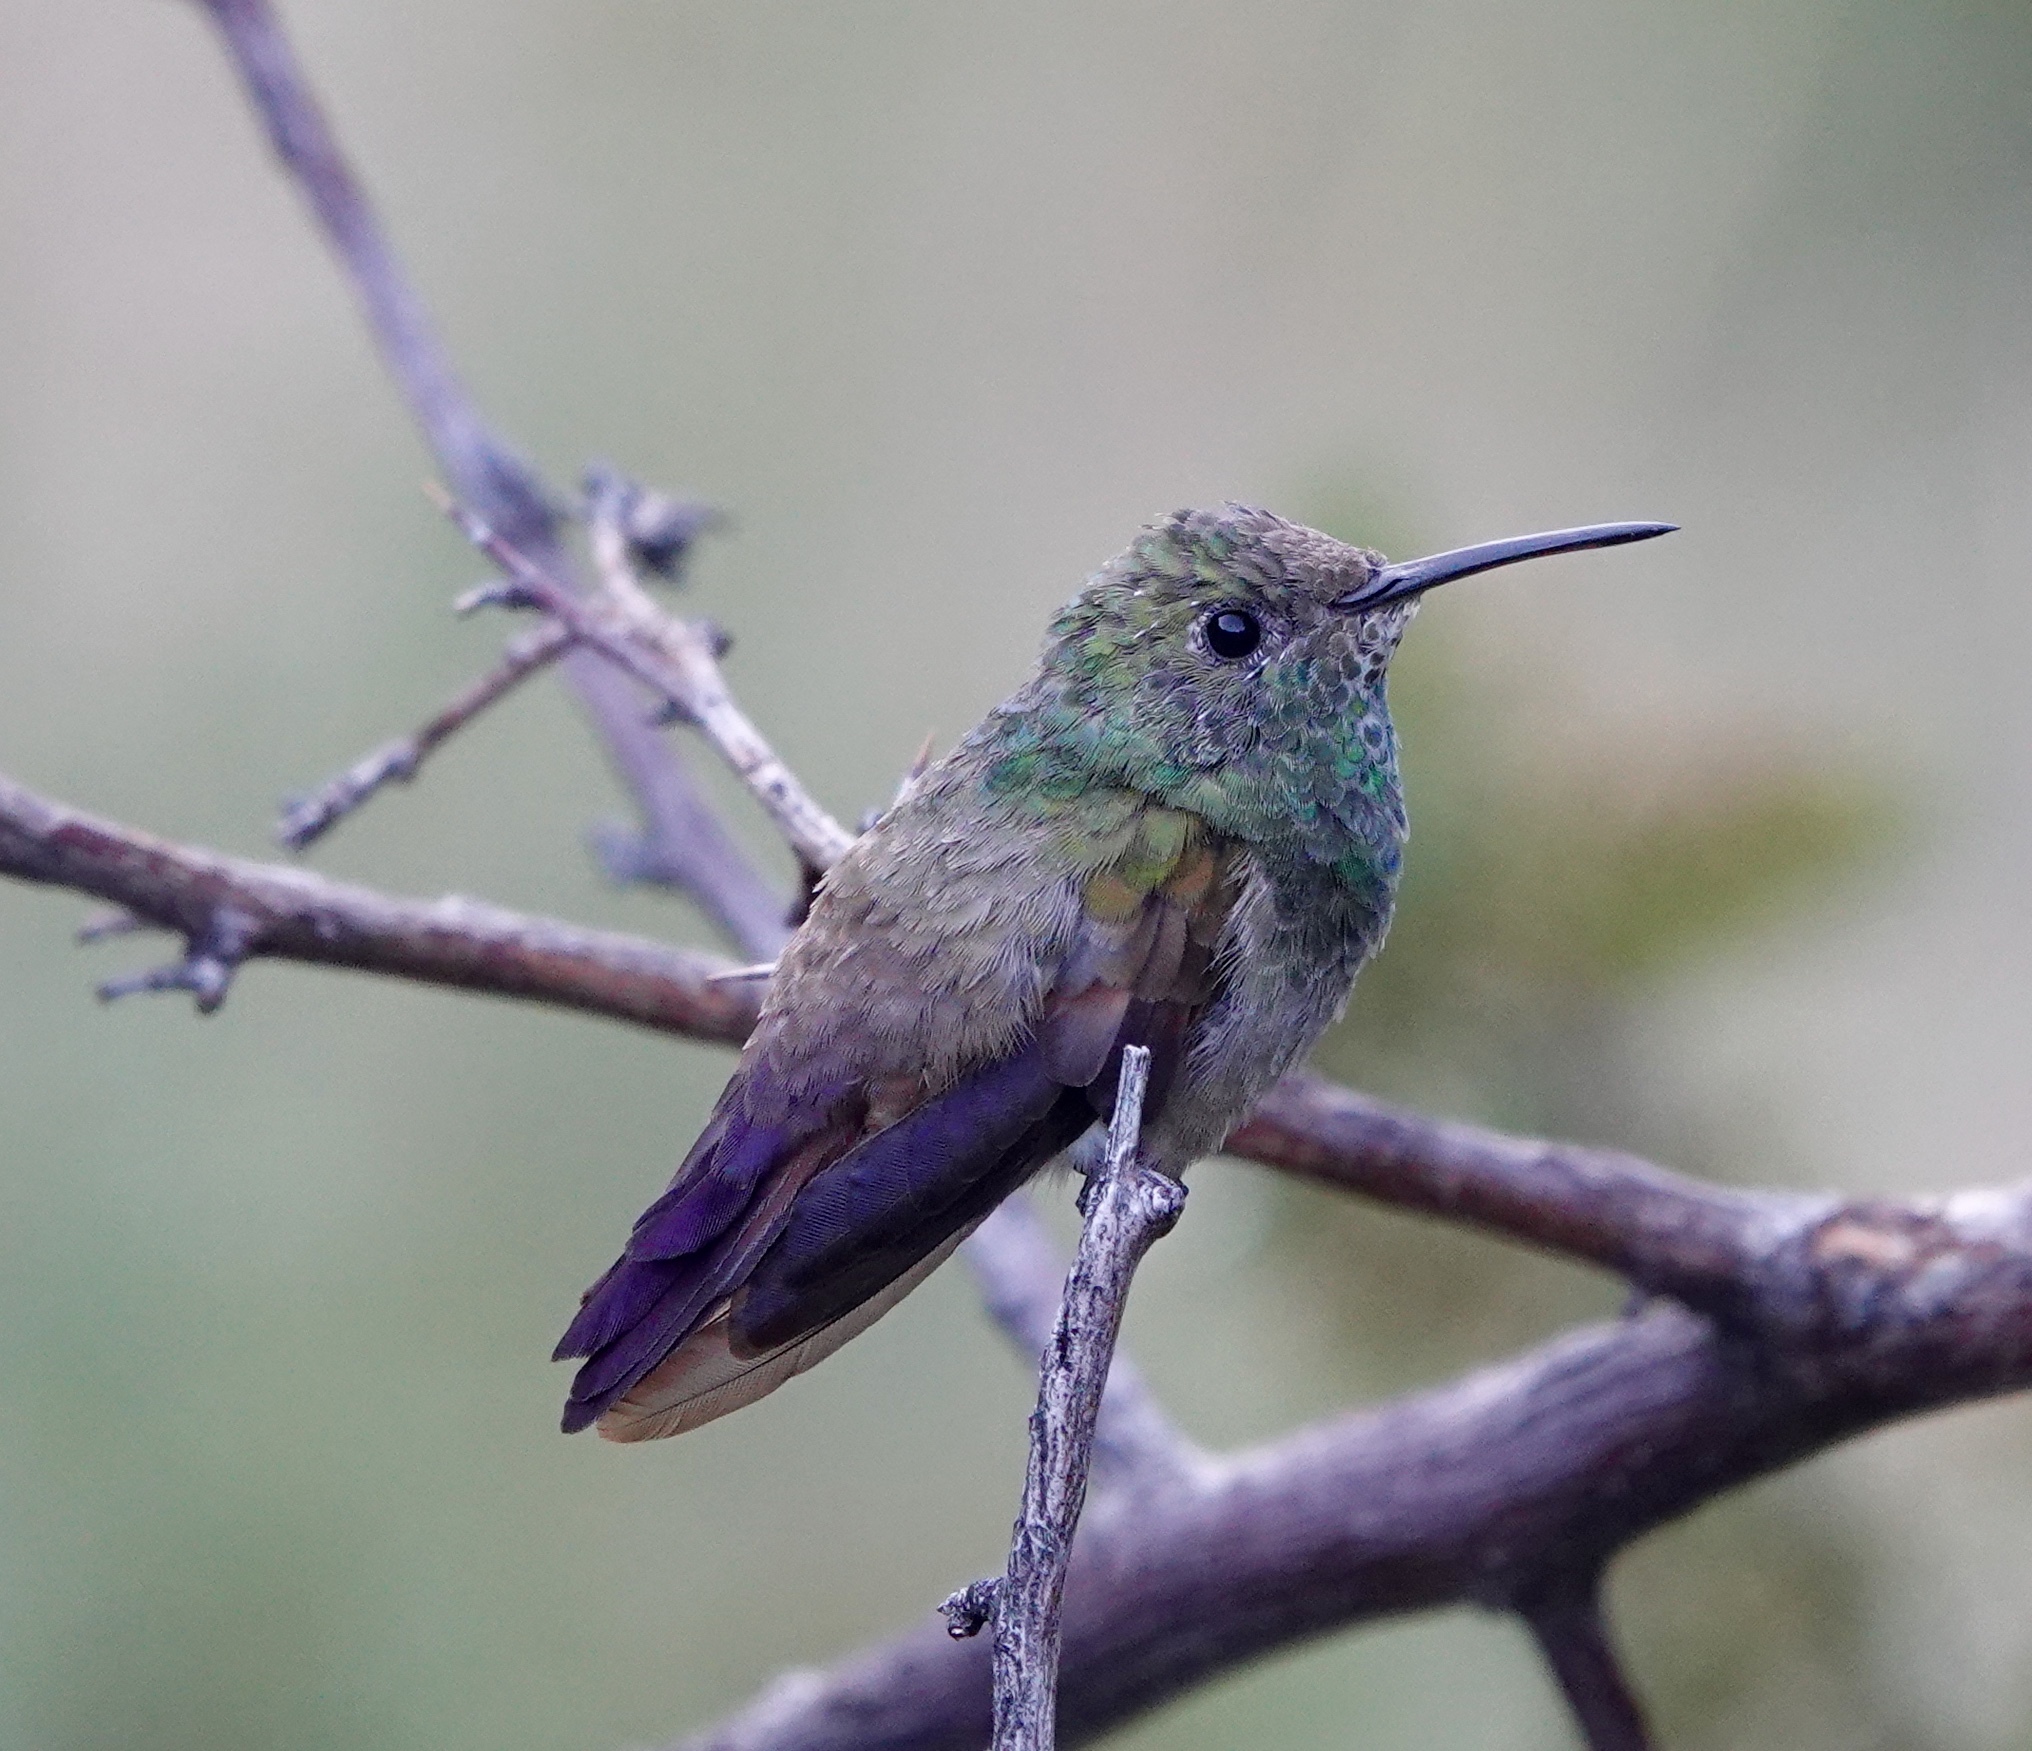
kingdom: Animalia
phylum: Chordata
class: Aves
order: Apodiformes
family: Trochilidae
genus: Saucerottia
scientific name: Saucerottia beryllina
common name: Berylline hummingbird
